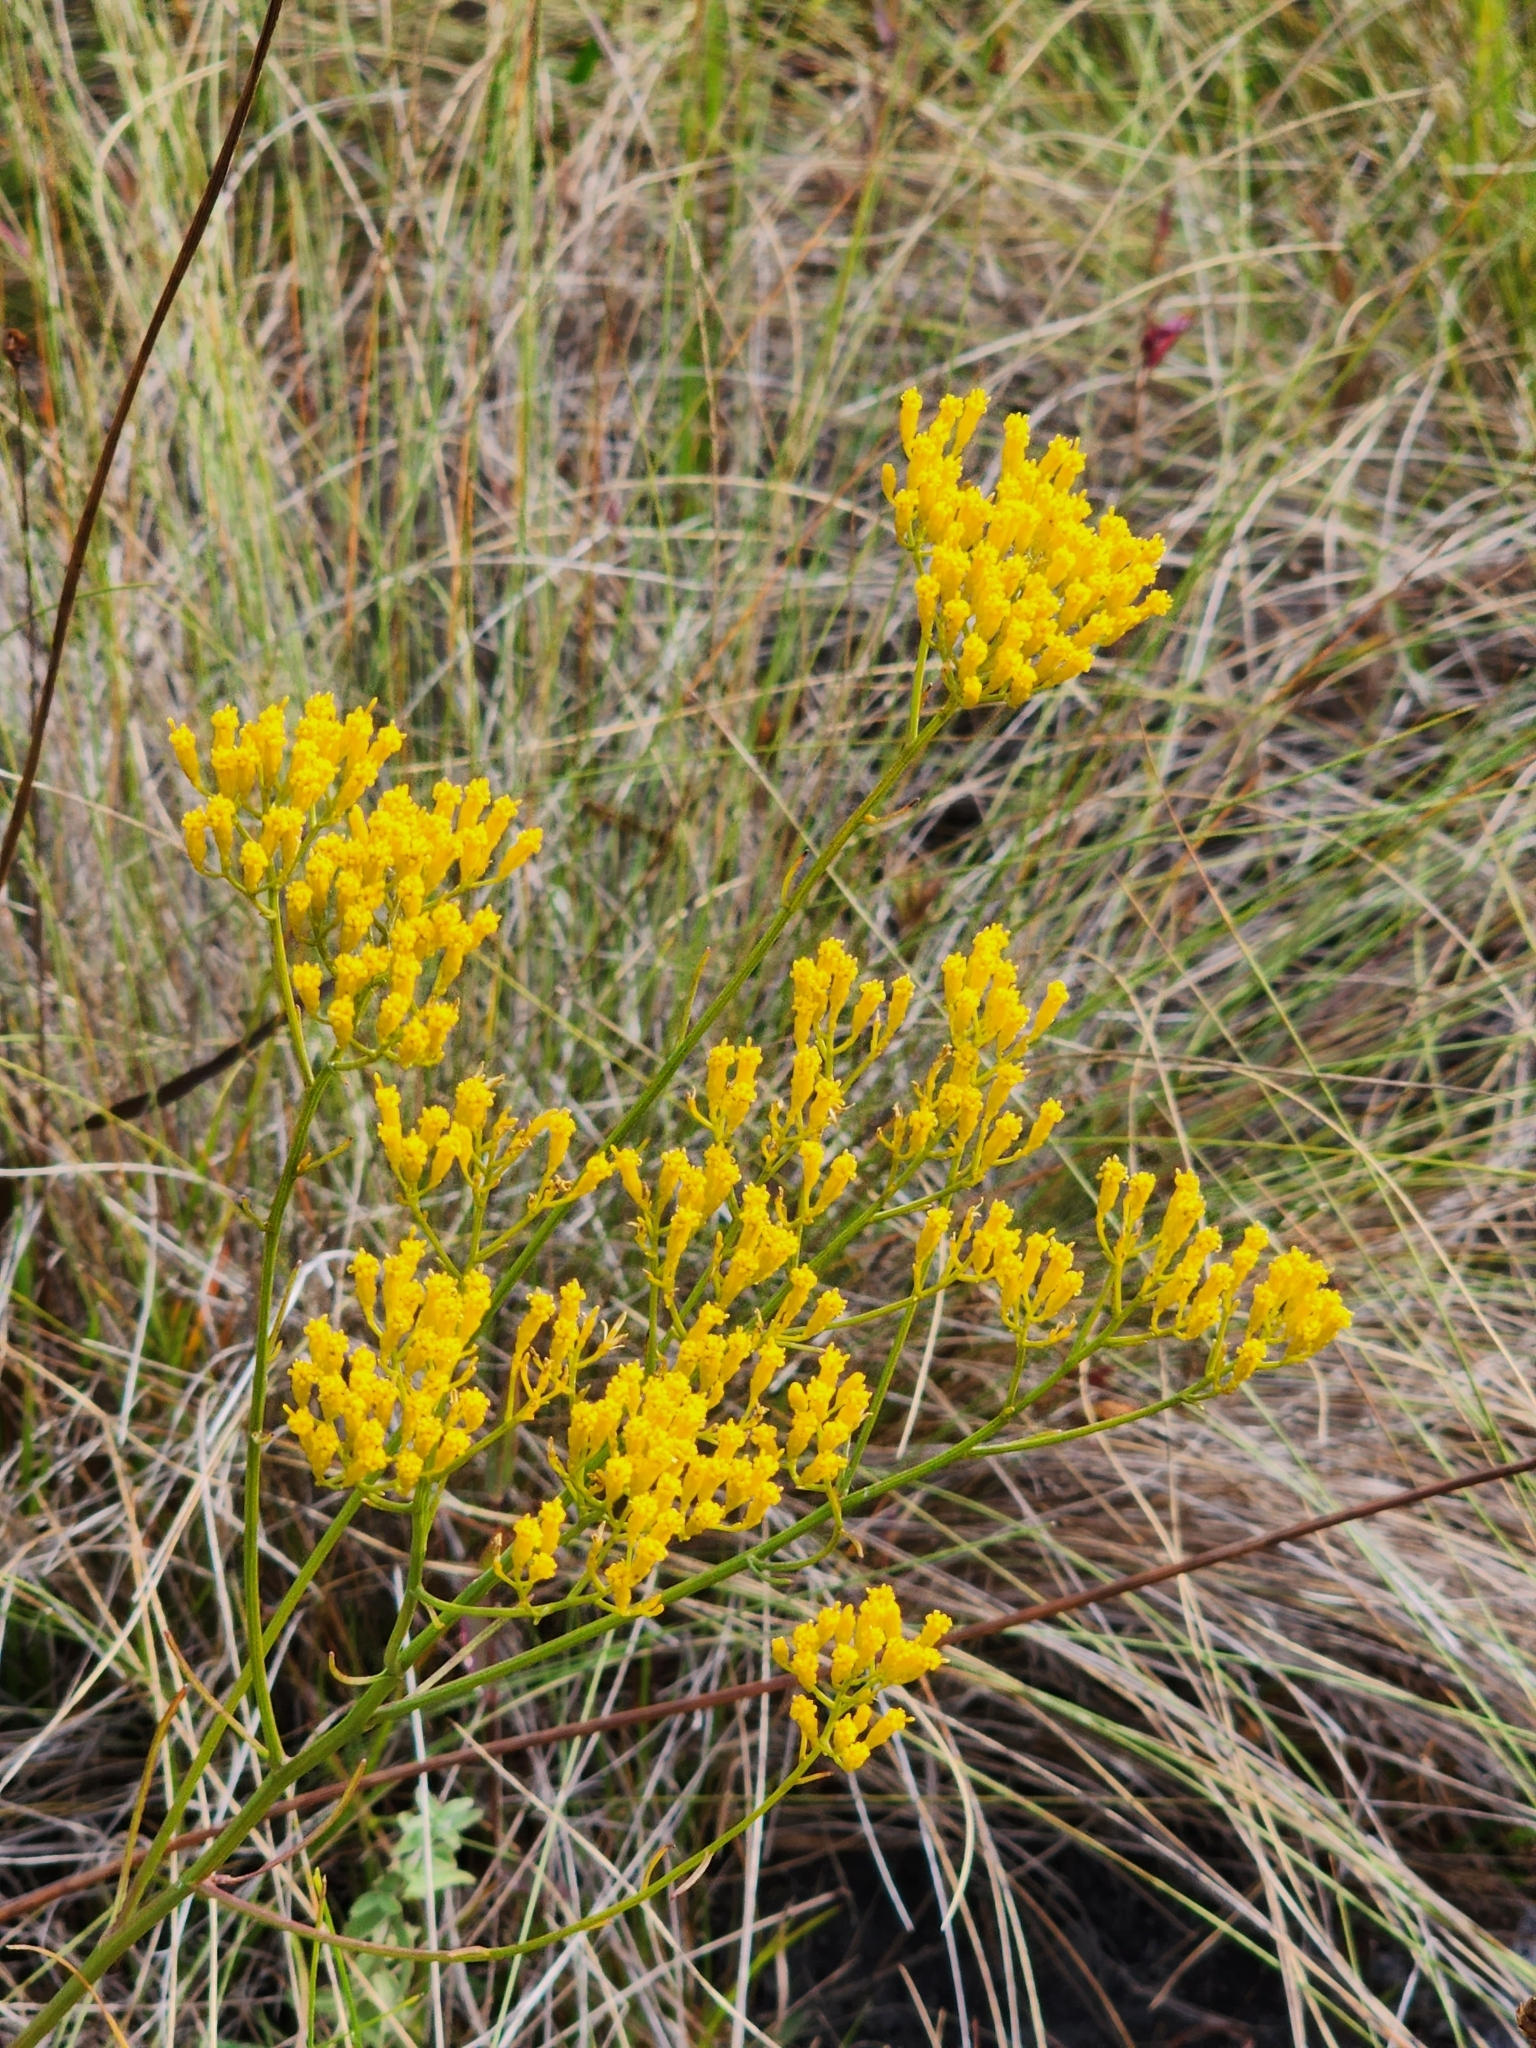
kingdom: Plantae
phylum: Tracheophyta
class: Magnoliopsida
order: Asterales
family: Asteraceae
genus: Bigelowia
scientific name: Bigelowia australis
